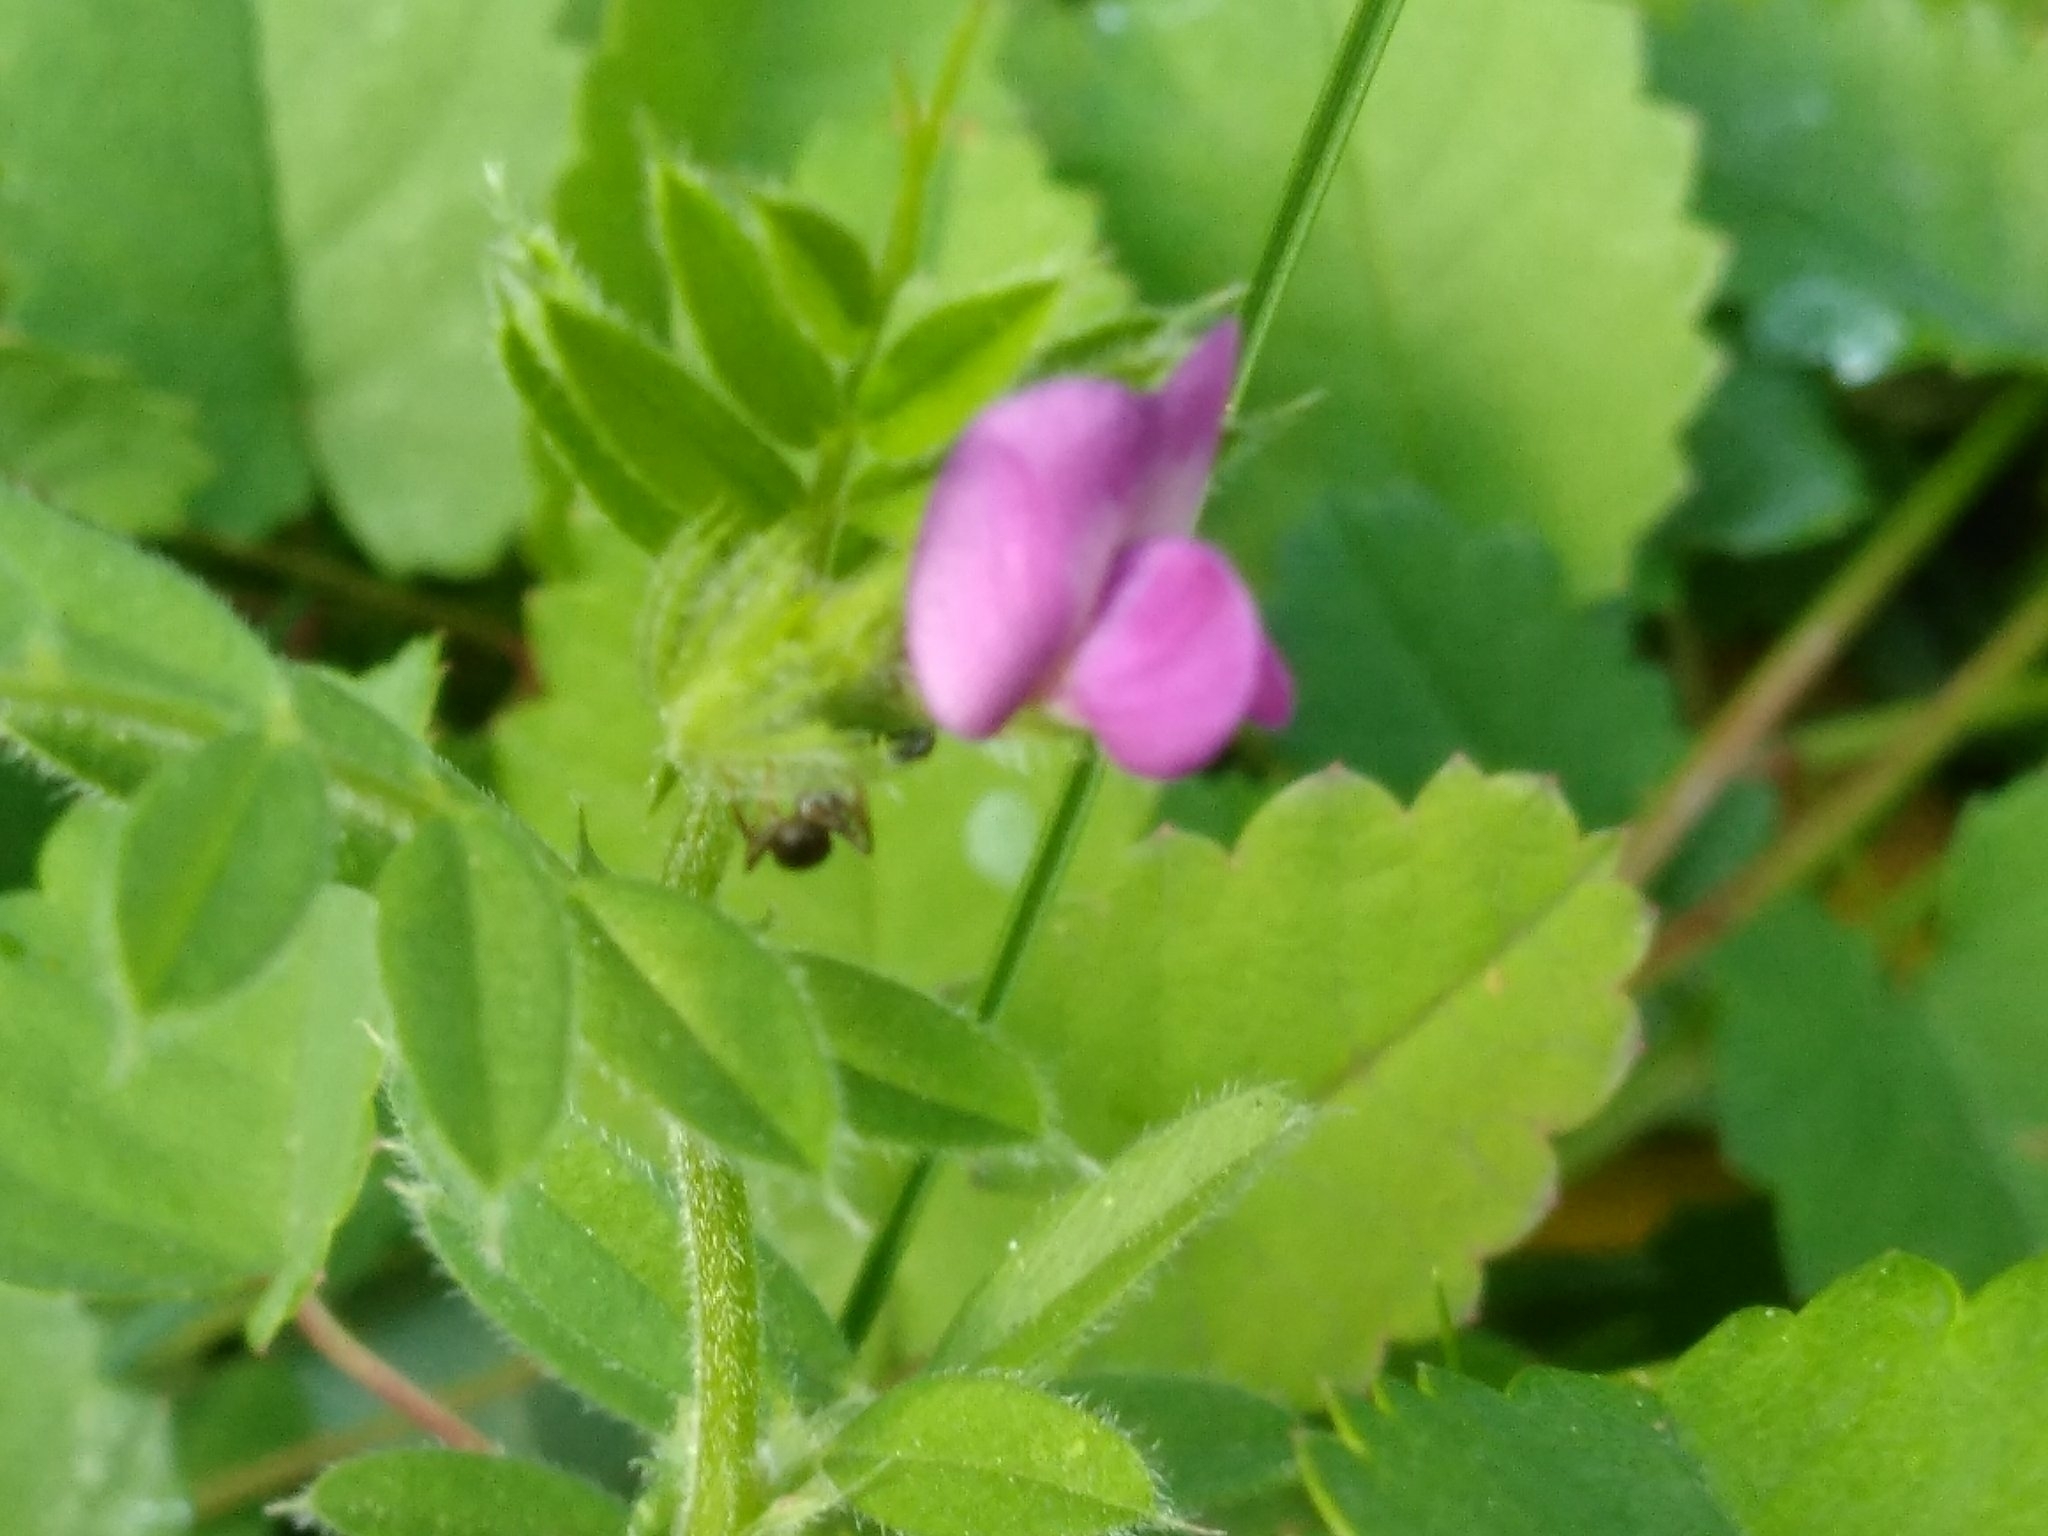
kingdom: Plantae
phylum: Tracheophyta
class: Magnoliopsida
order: Fabales
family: Fabaceae
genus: Vicia
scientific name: Vicia sativa
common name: Garden vetch
